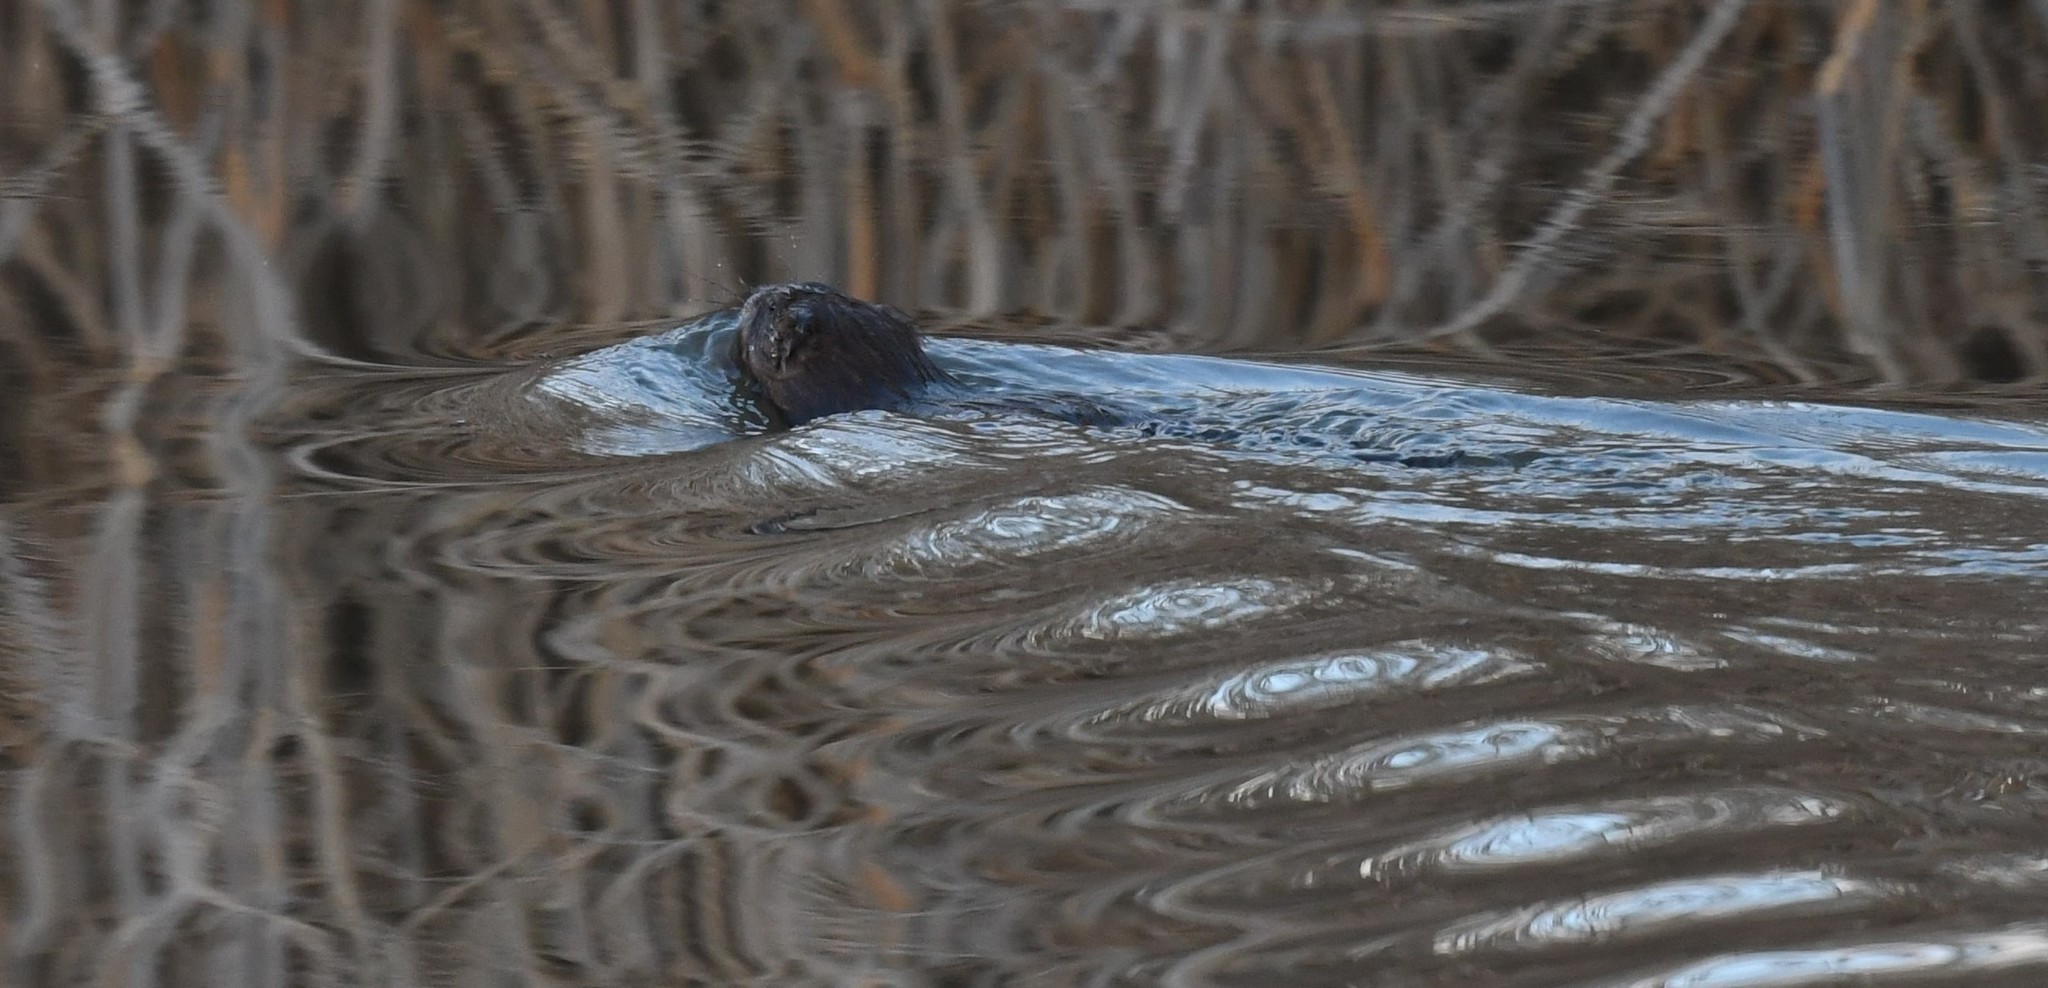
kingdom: Animalia
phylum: Chordata
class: Mammalia
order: Rodentia
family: Cricetidae
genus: Ondatra
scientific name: Ondatra zibethicus
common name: Muskrat
